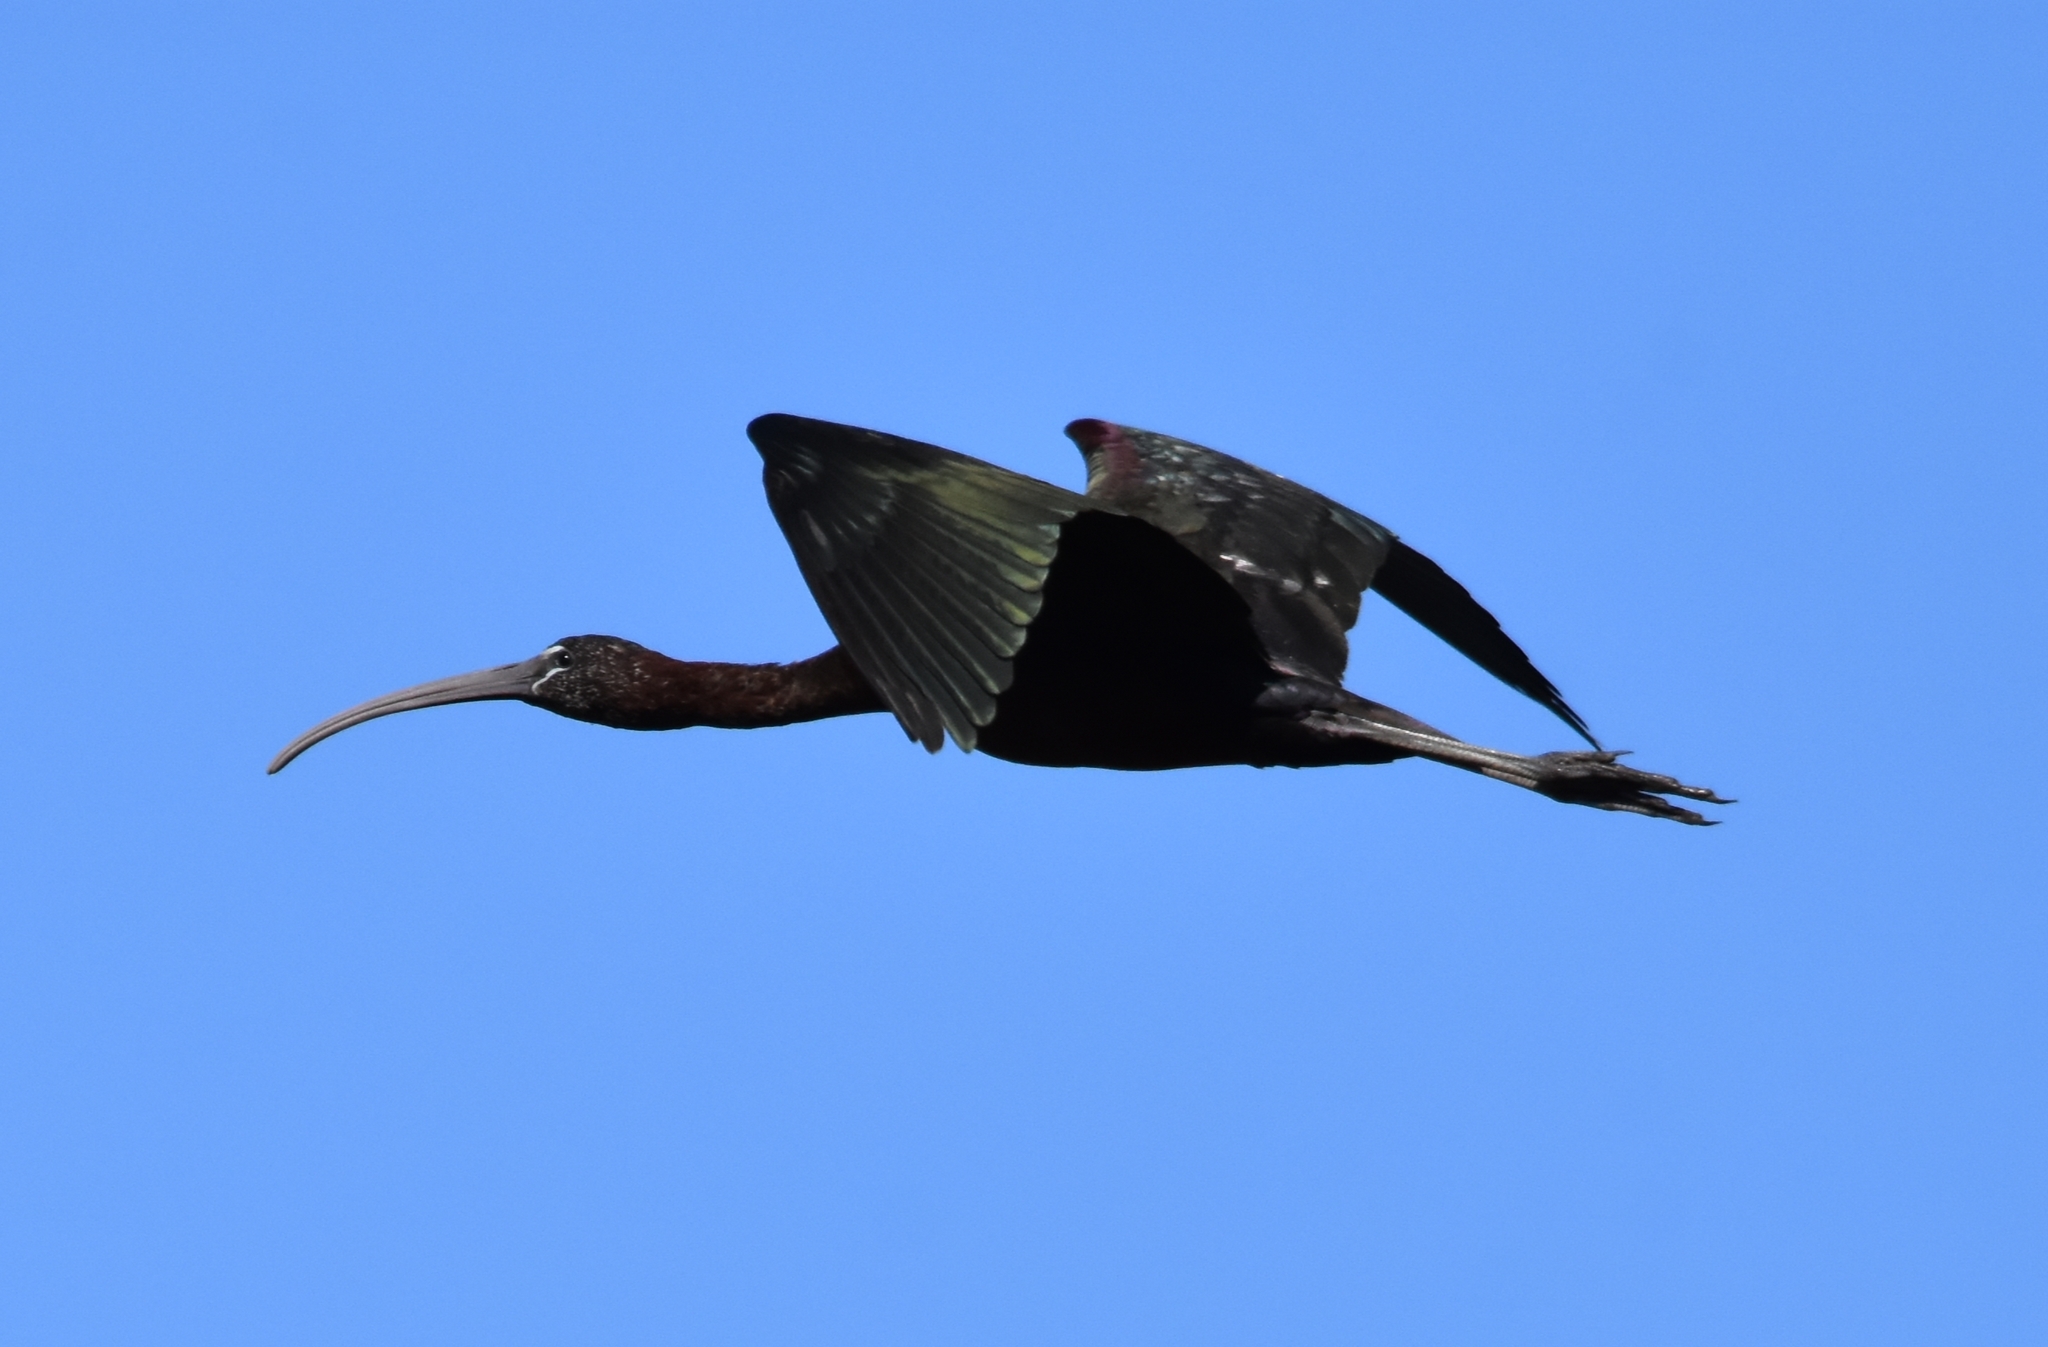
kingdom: Animalia
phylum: Chordata
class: Aves
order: Pelecaniformes
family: Threskiornithidae
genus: Plegadis
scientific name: Plegadis falcinellus
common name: Glossy ibis
